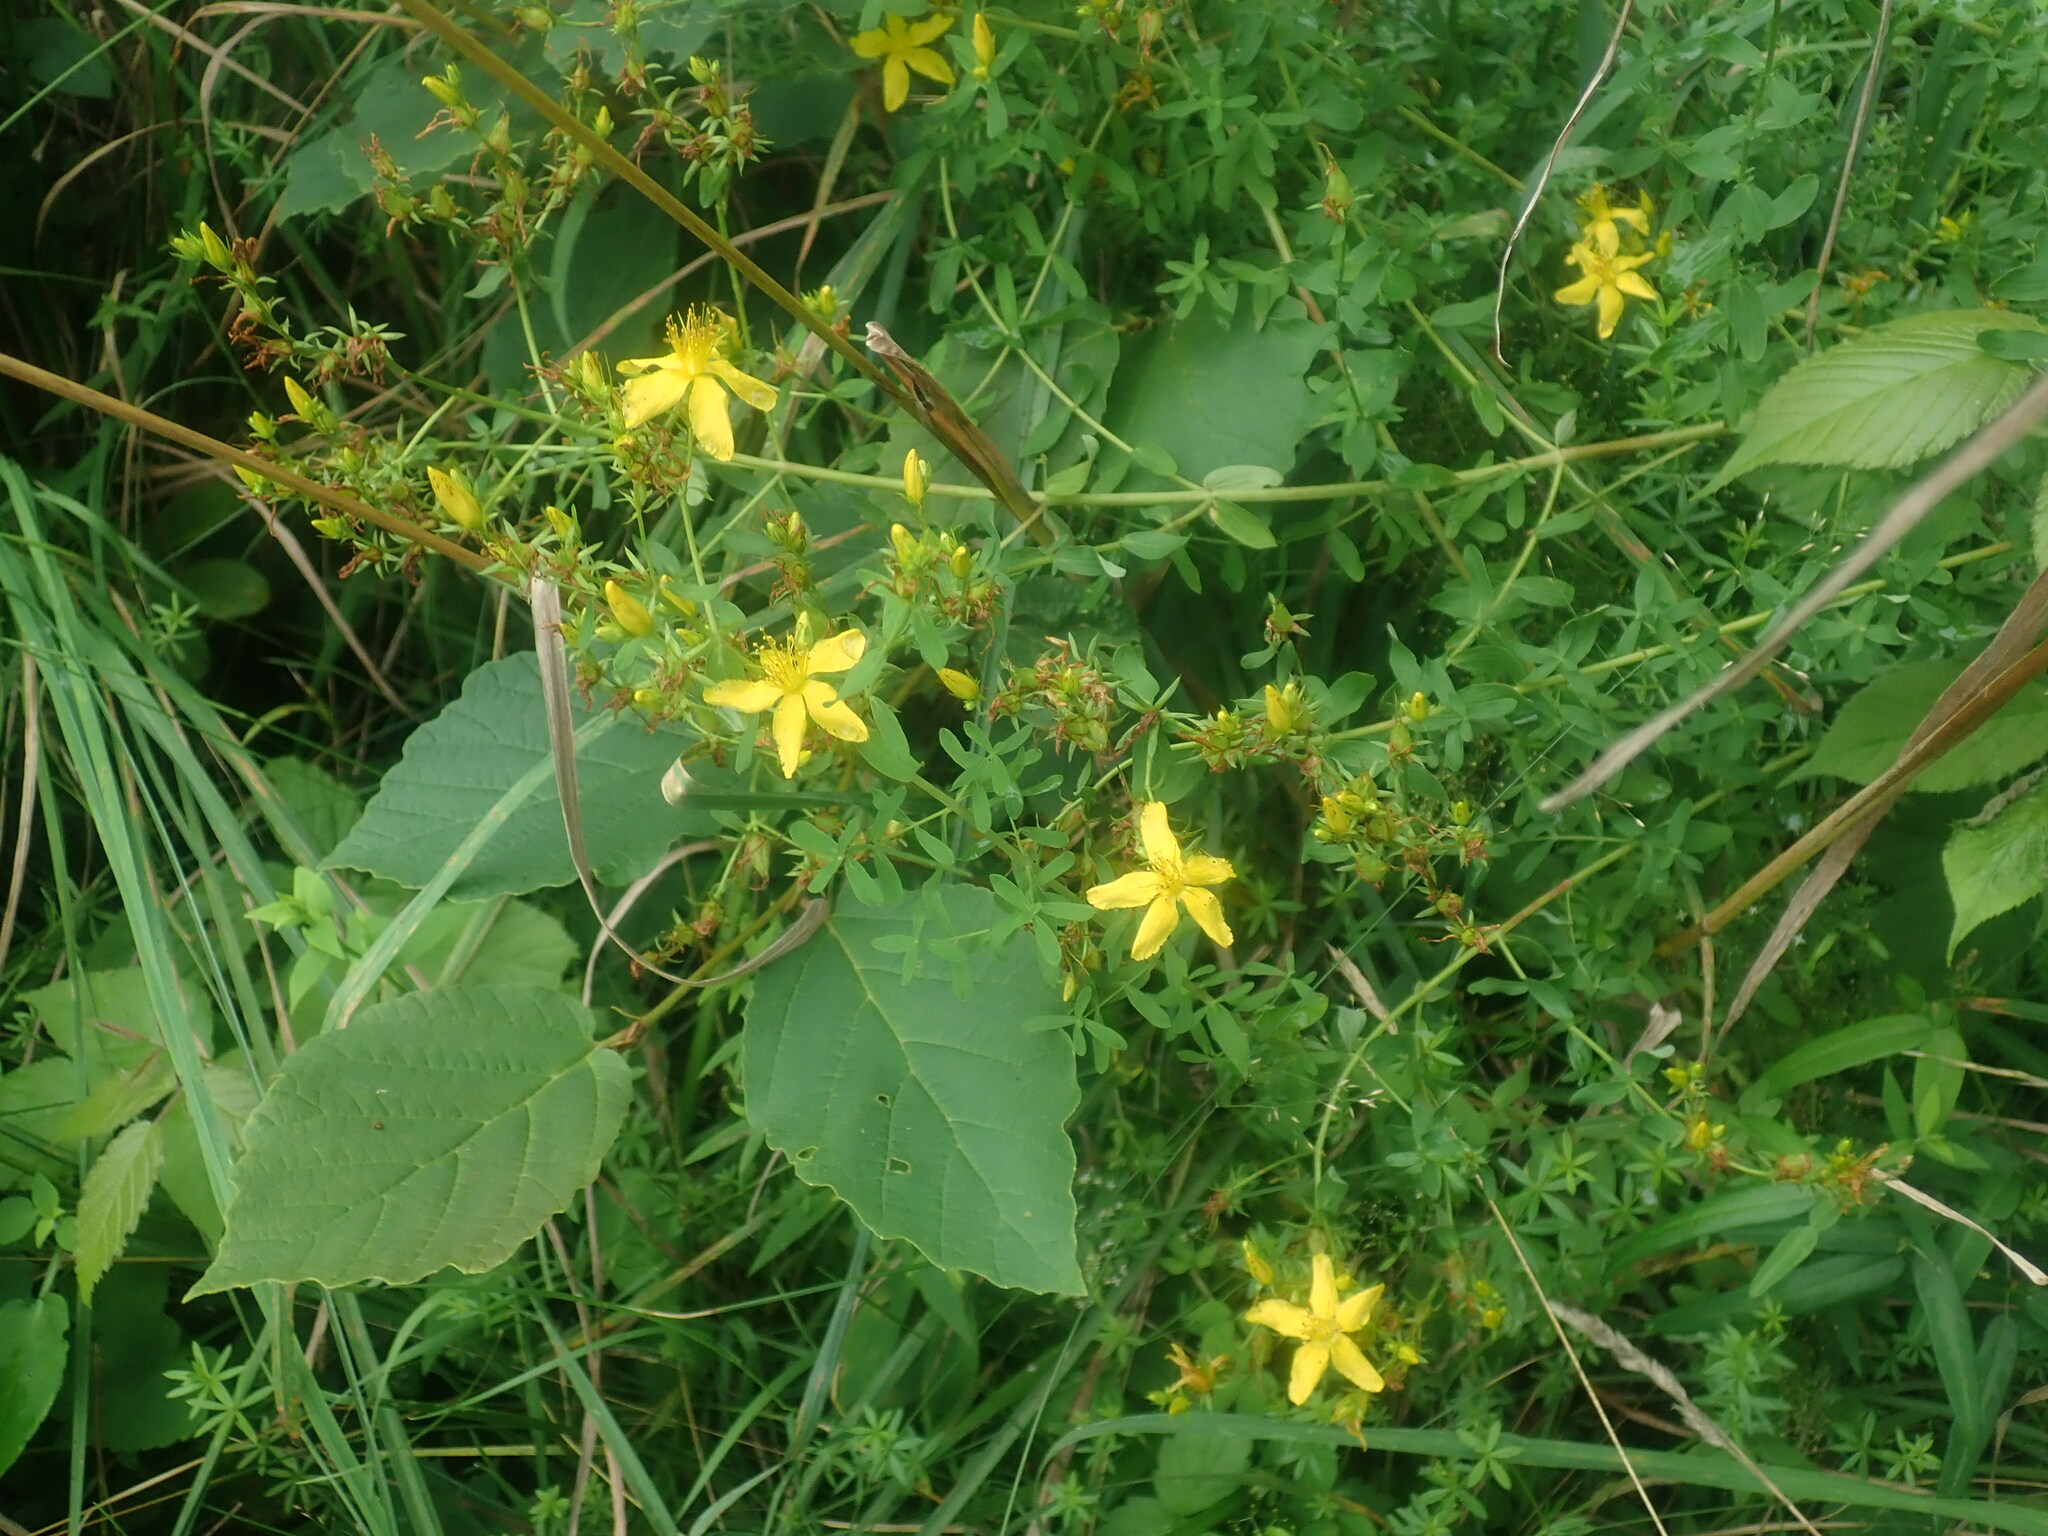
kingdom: Plantae
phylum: Tracheophyta
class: Magnoliopsida
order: Malpighiales
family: Hypericaceae
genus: Hypericum
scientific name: Hypericum perforatum
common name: Common st. johnswort
